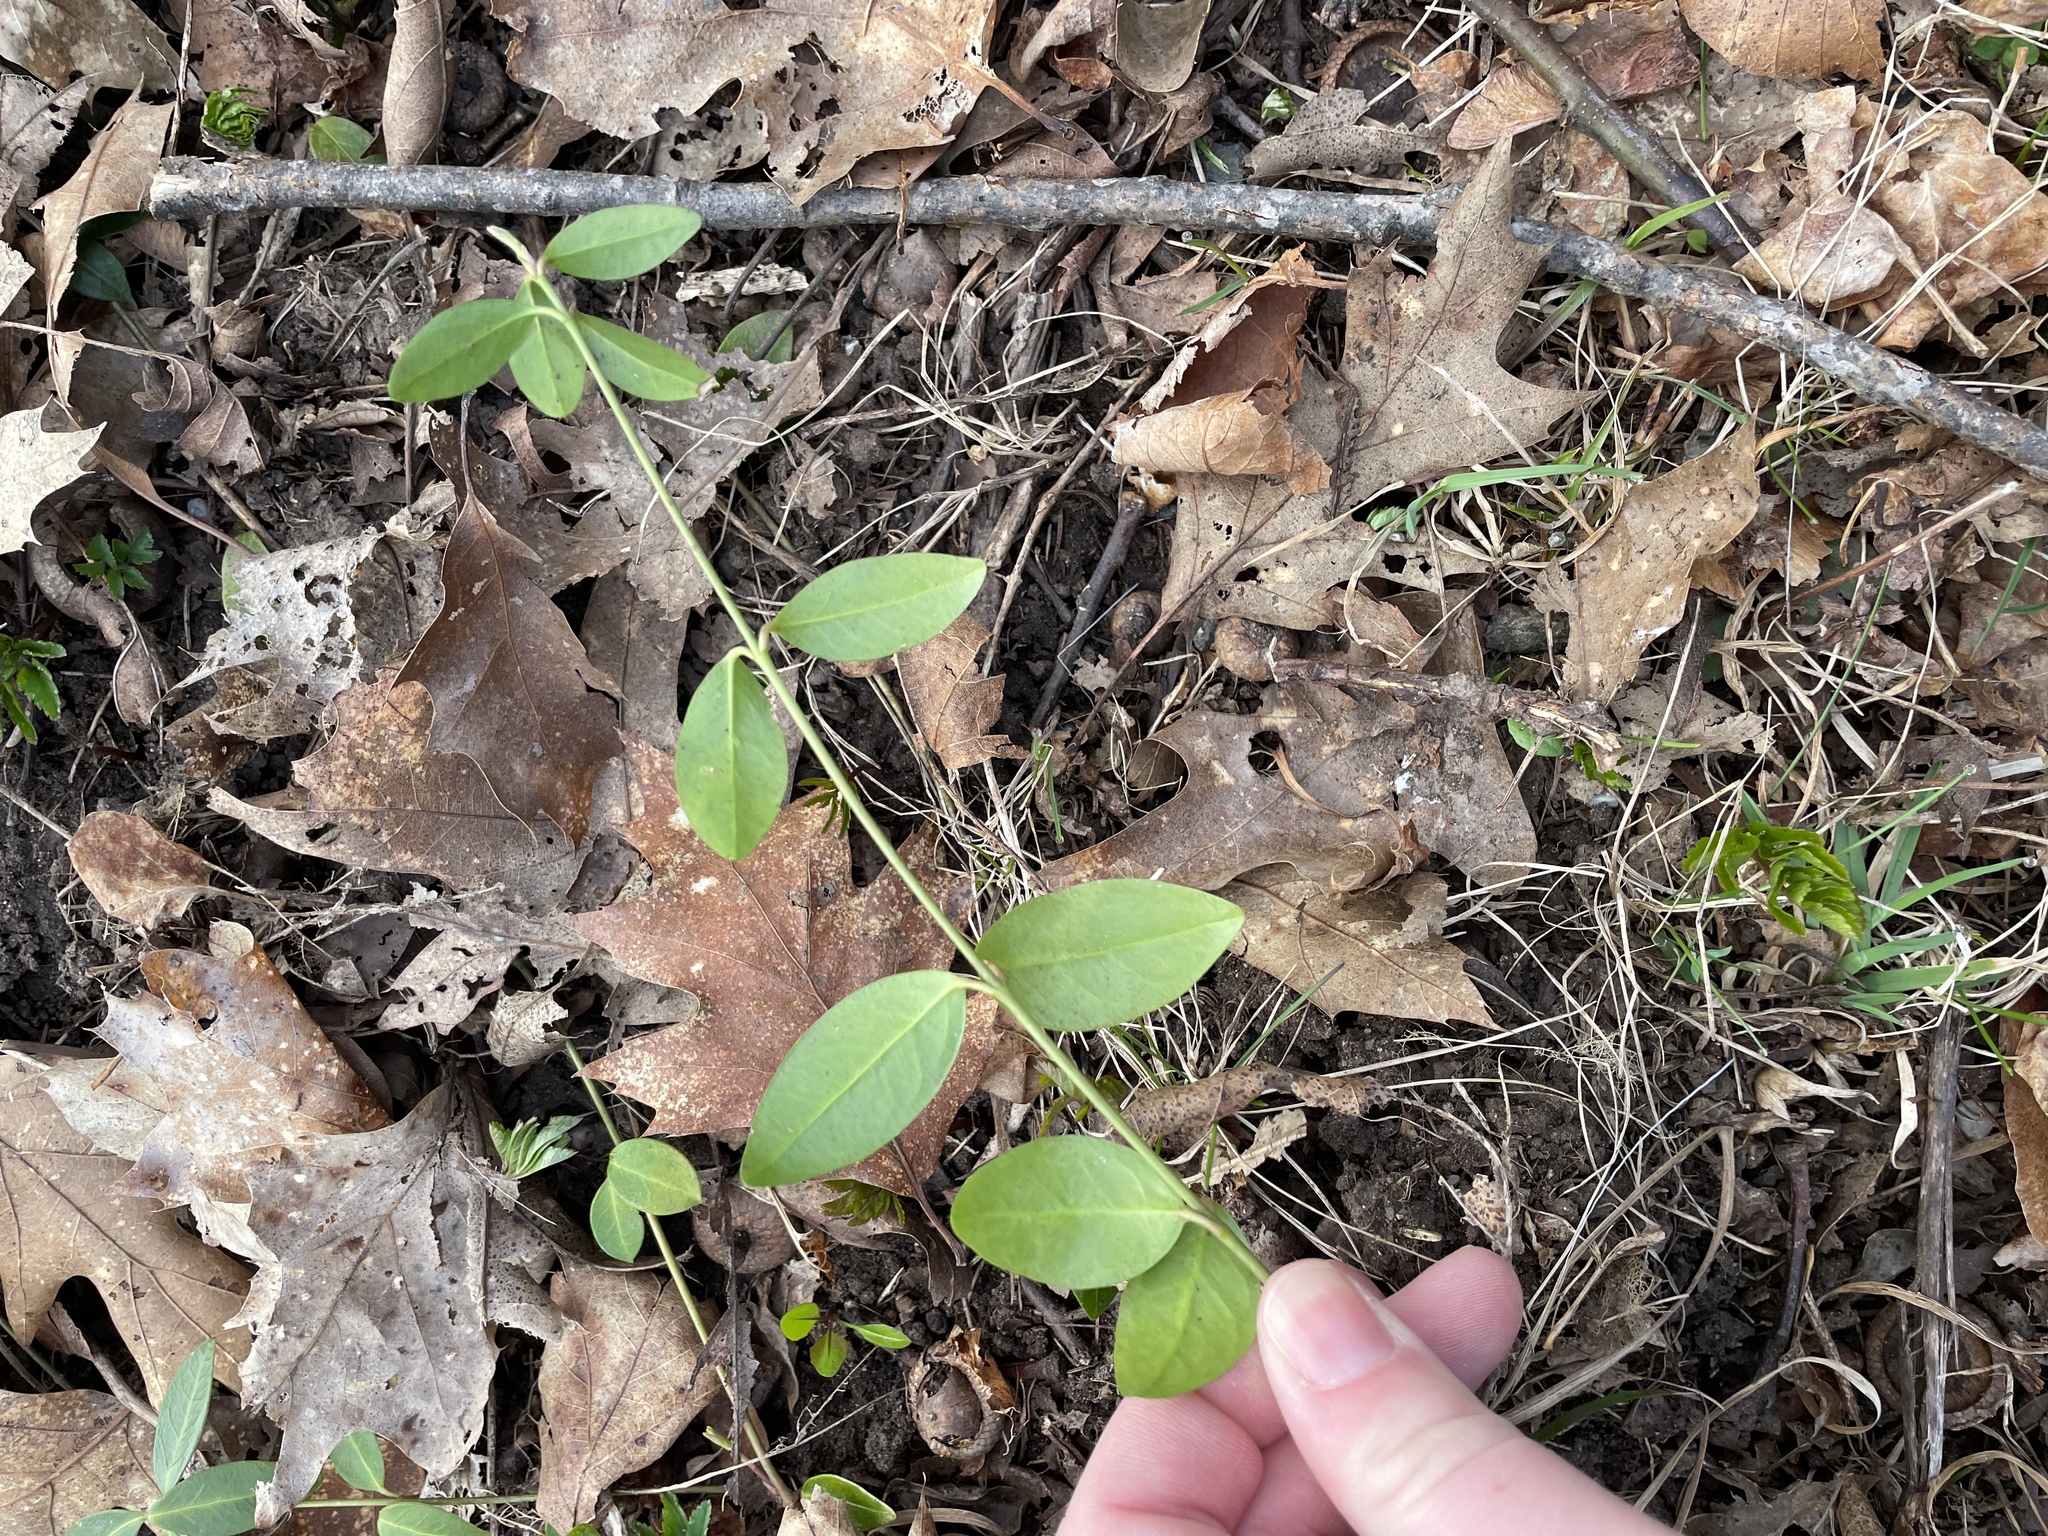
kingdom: Plantae
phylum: Tracheophyta
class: Magnoliopsida
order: Gentianales
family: Apocynaceae
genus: Vinca
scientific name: Vinca minor
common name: Lesser periwinkle
